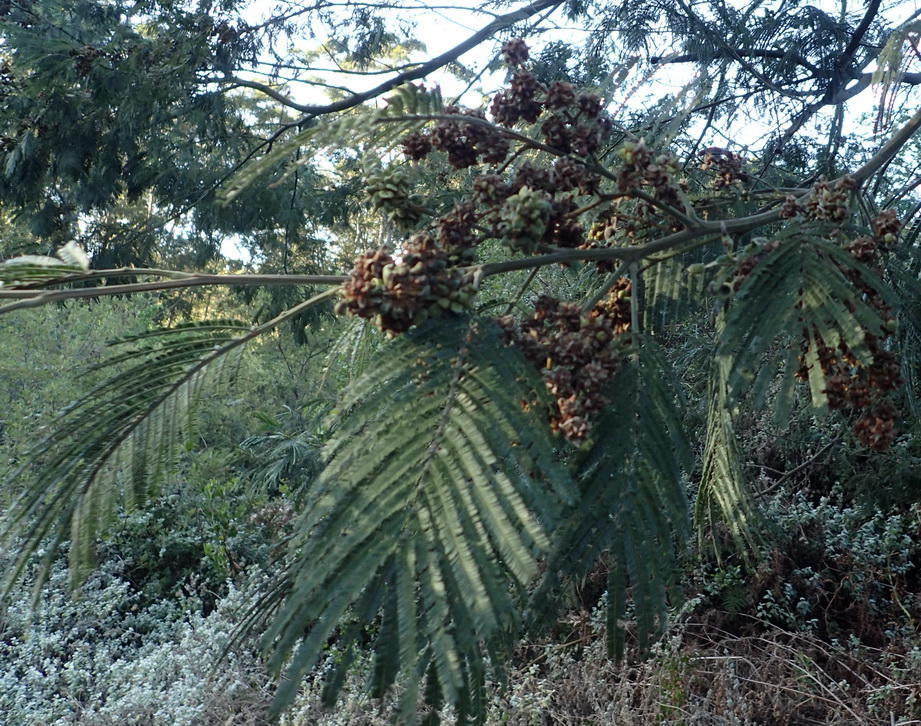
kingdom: Animalia
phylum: Arthropoda
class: Insecta
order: Diptera
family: Cecidomyiidae
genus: Dasineura
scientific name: Dasineura rubiformis
